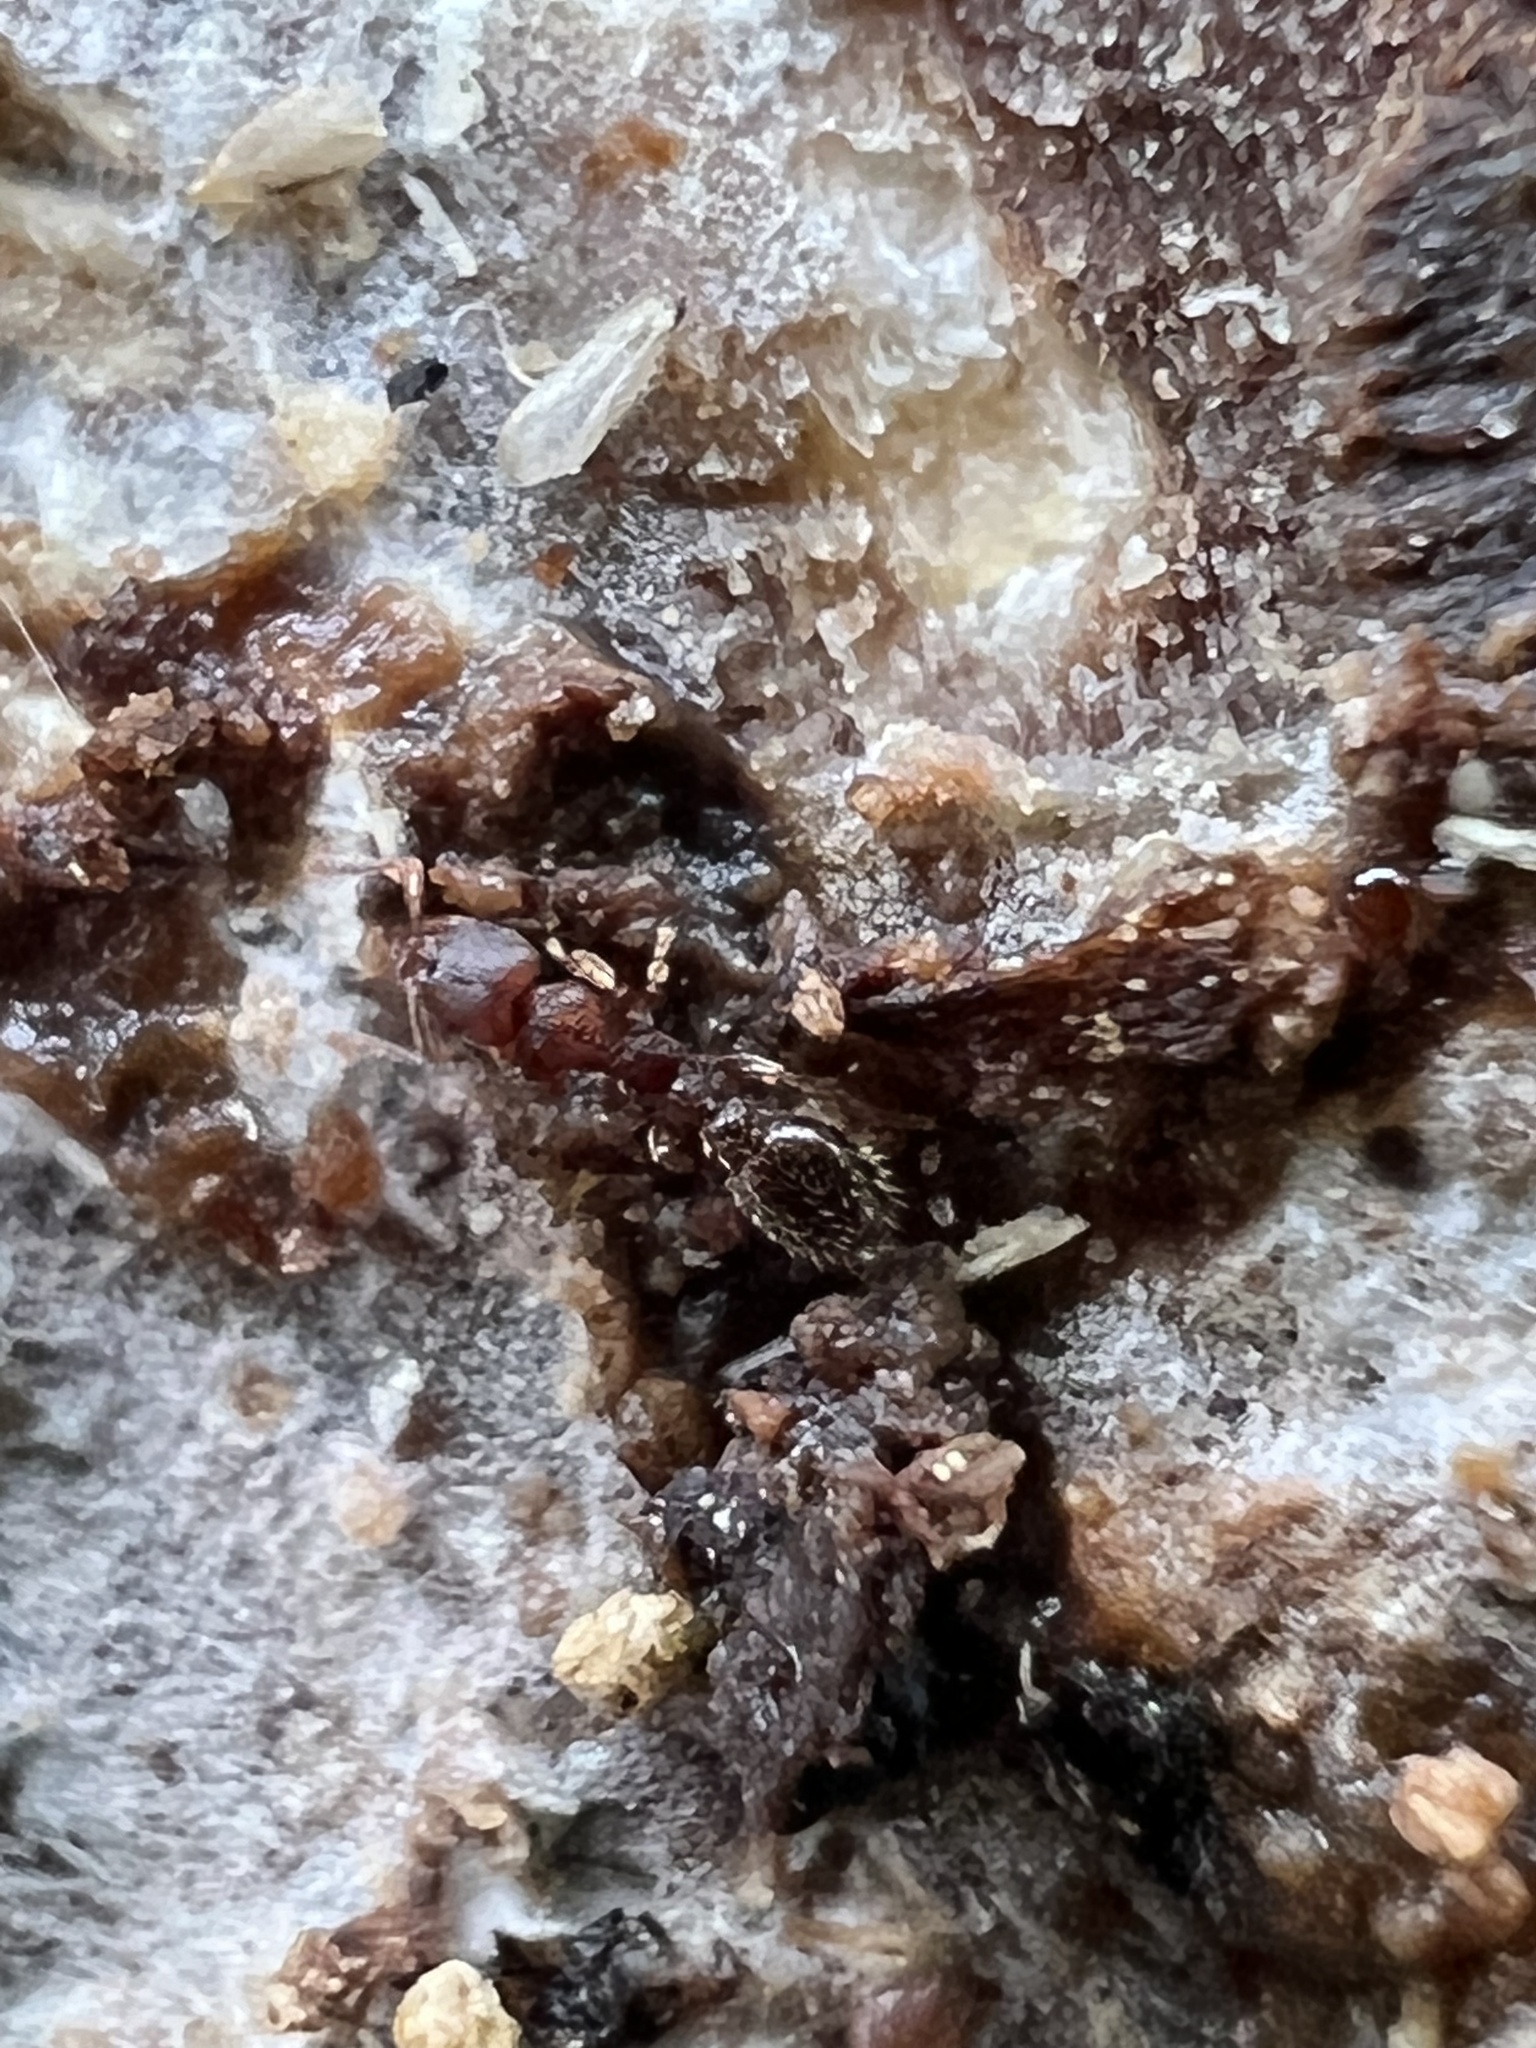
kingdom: Animalia
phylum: Arthropoda
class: Insecta
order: Hymenoptera
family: Formicidae
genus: Vollenhovia
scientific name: Vollenhovia emeryi
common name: Ant
